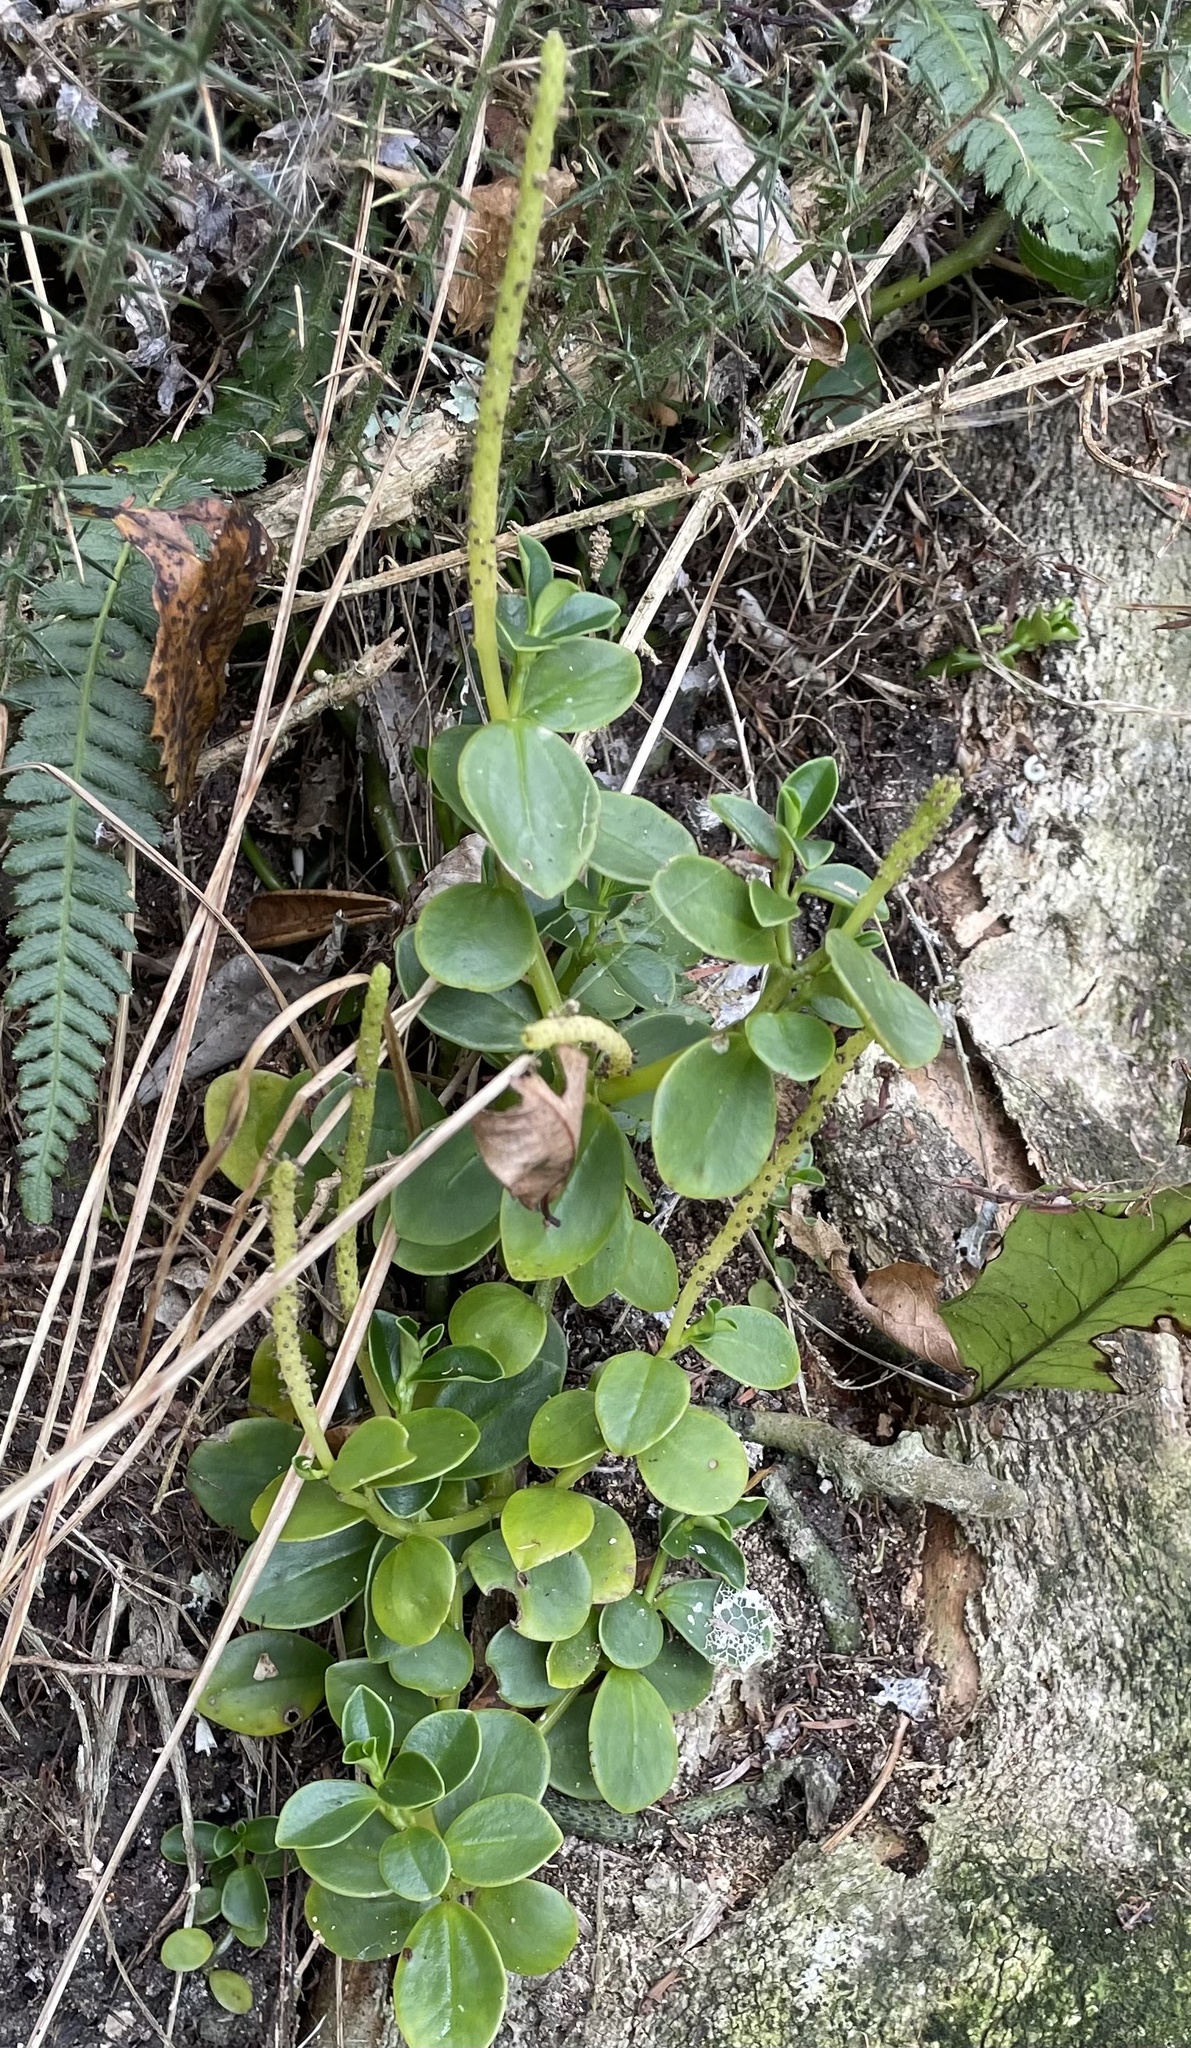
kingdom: Plantae
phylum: Tracheophyta
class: Magnoliopsida
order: Piperales
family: Piperaceae
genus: Peperomia
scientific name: Peperomia urvilleana
